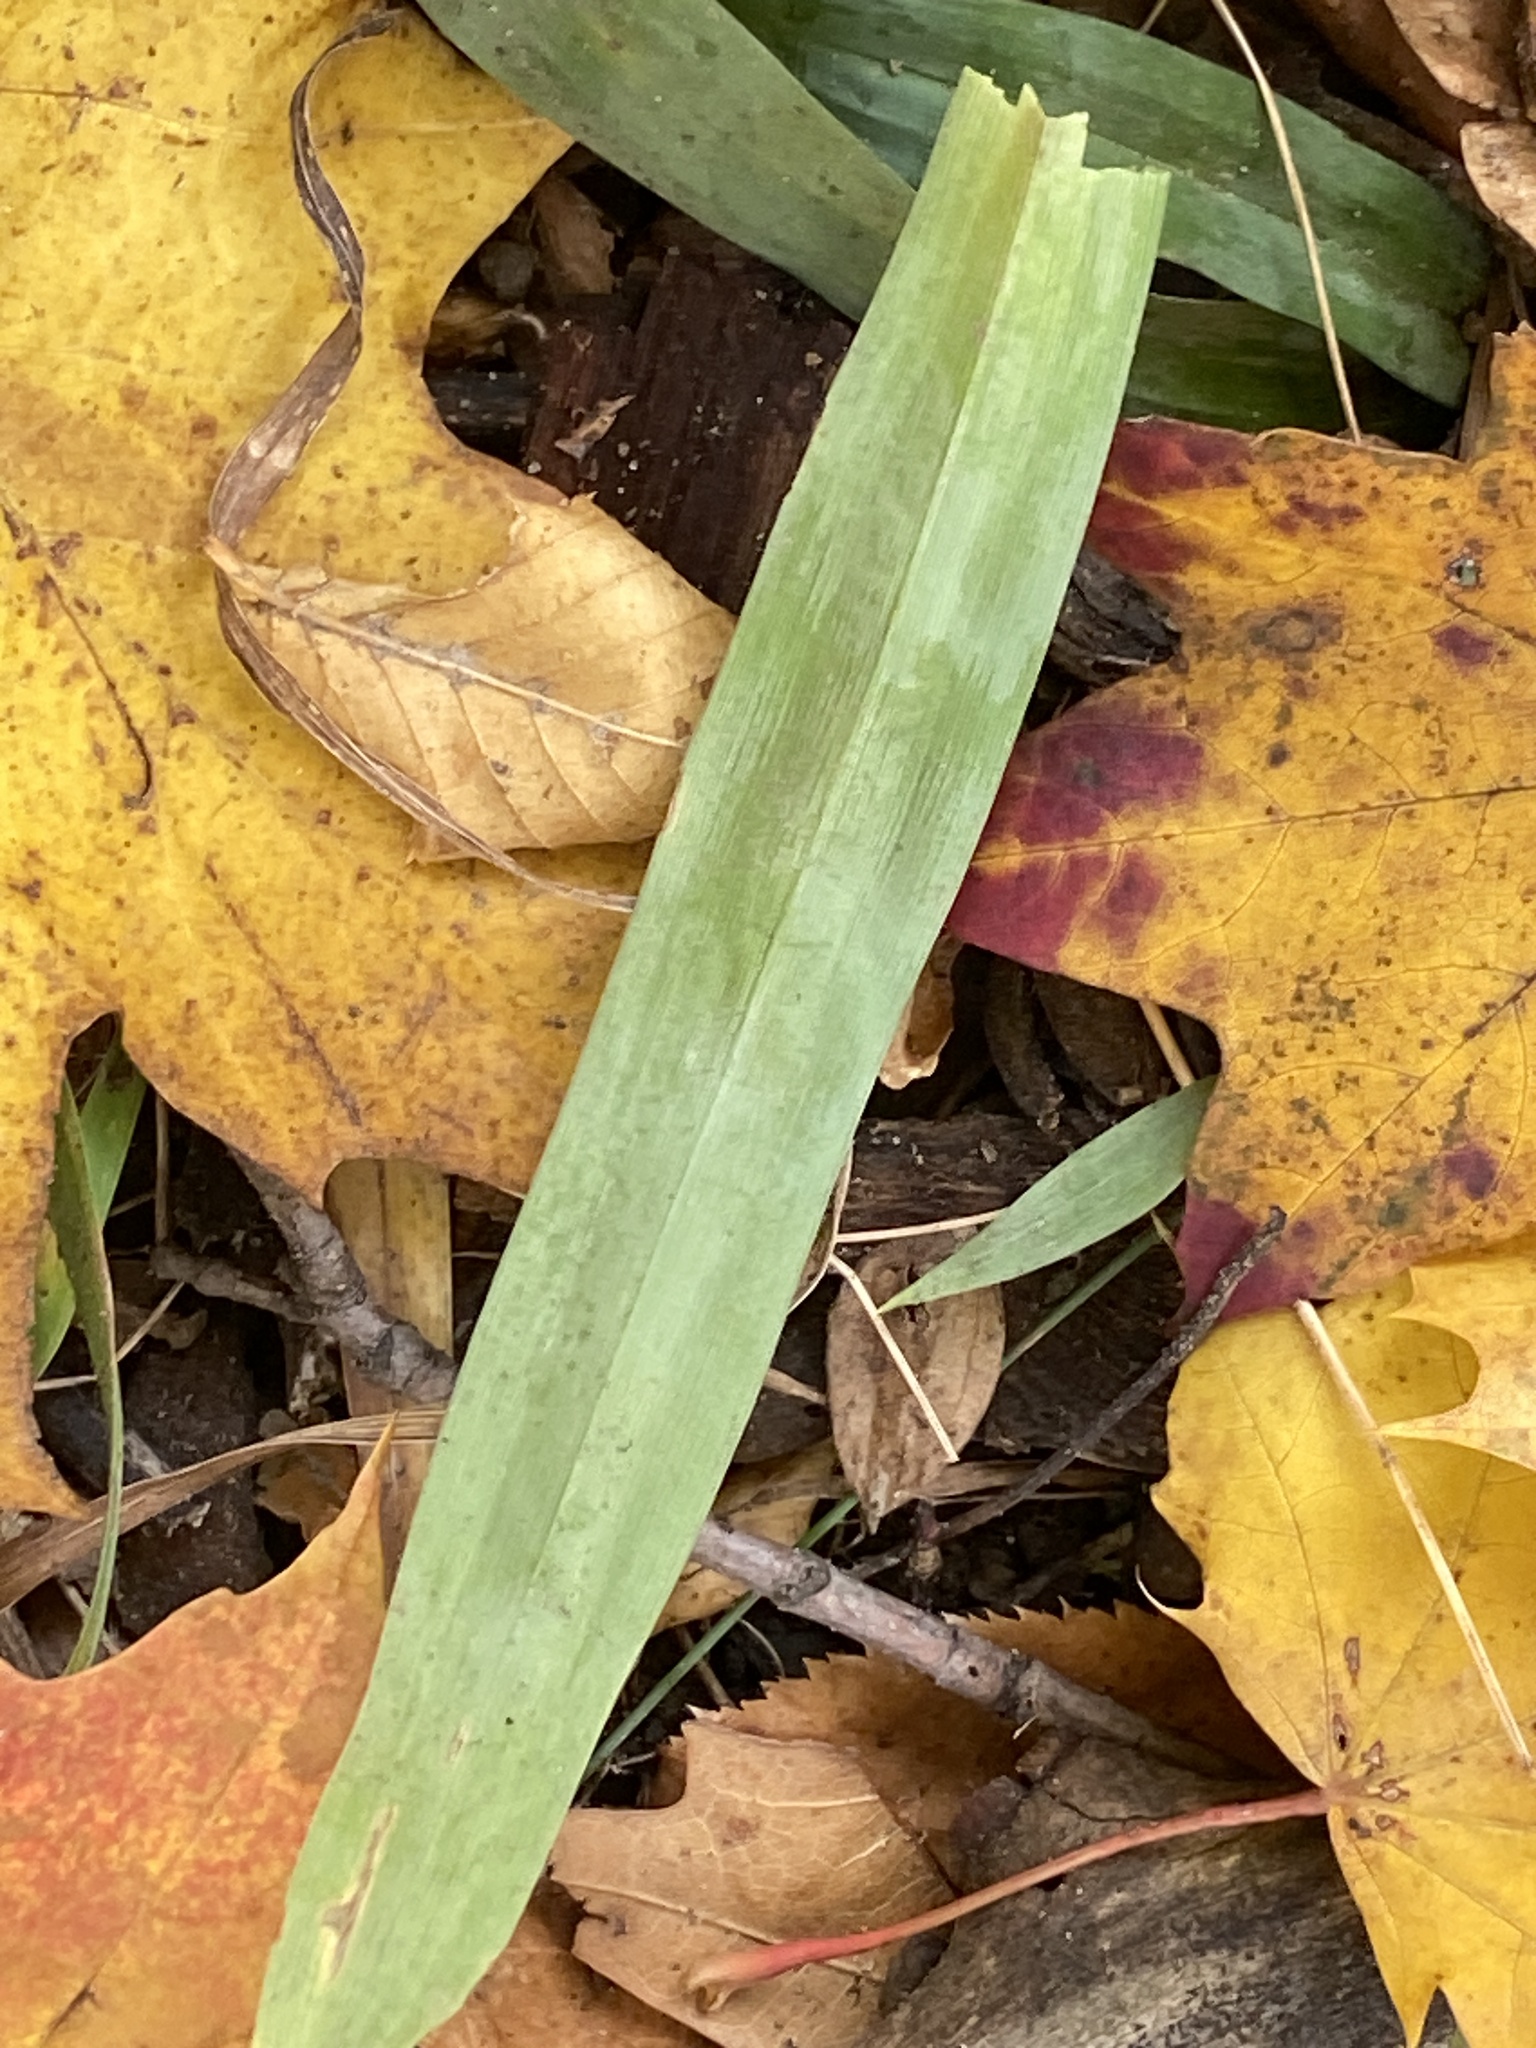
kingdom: Plantae
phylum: Tracheophyta
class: Liliopsida
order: Poales
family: Cyperaceae
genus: Carex
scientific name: Carex platyphylla
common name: Broad-leaved sedge
